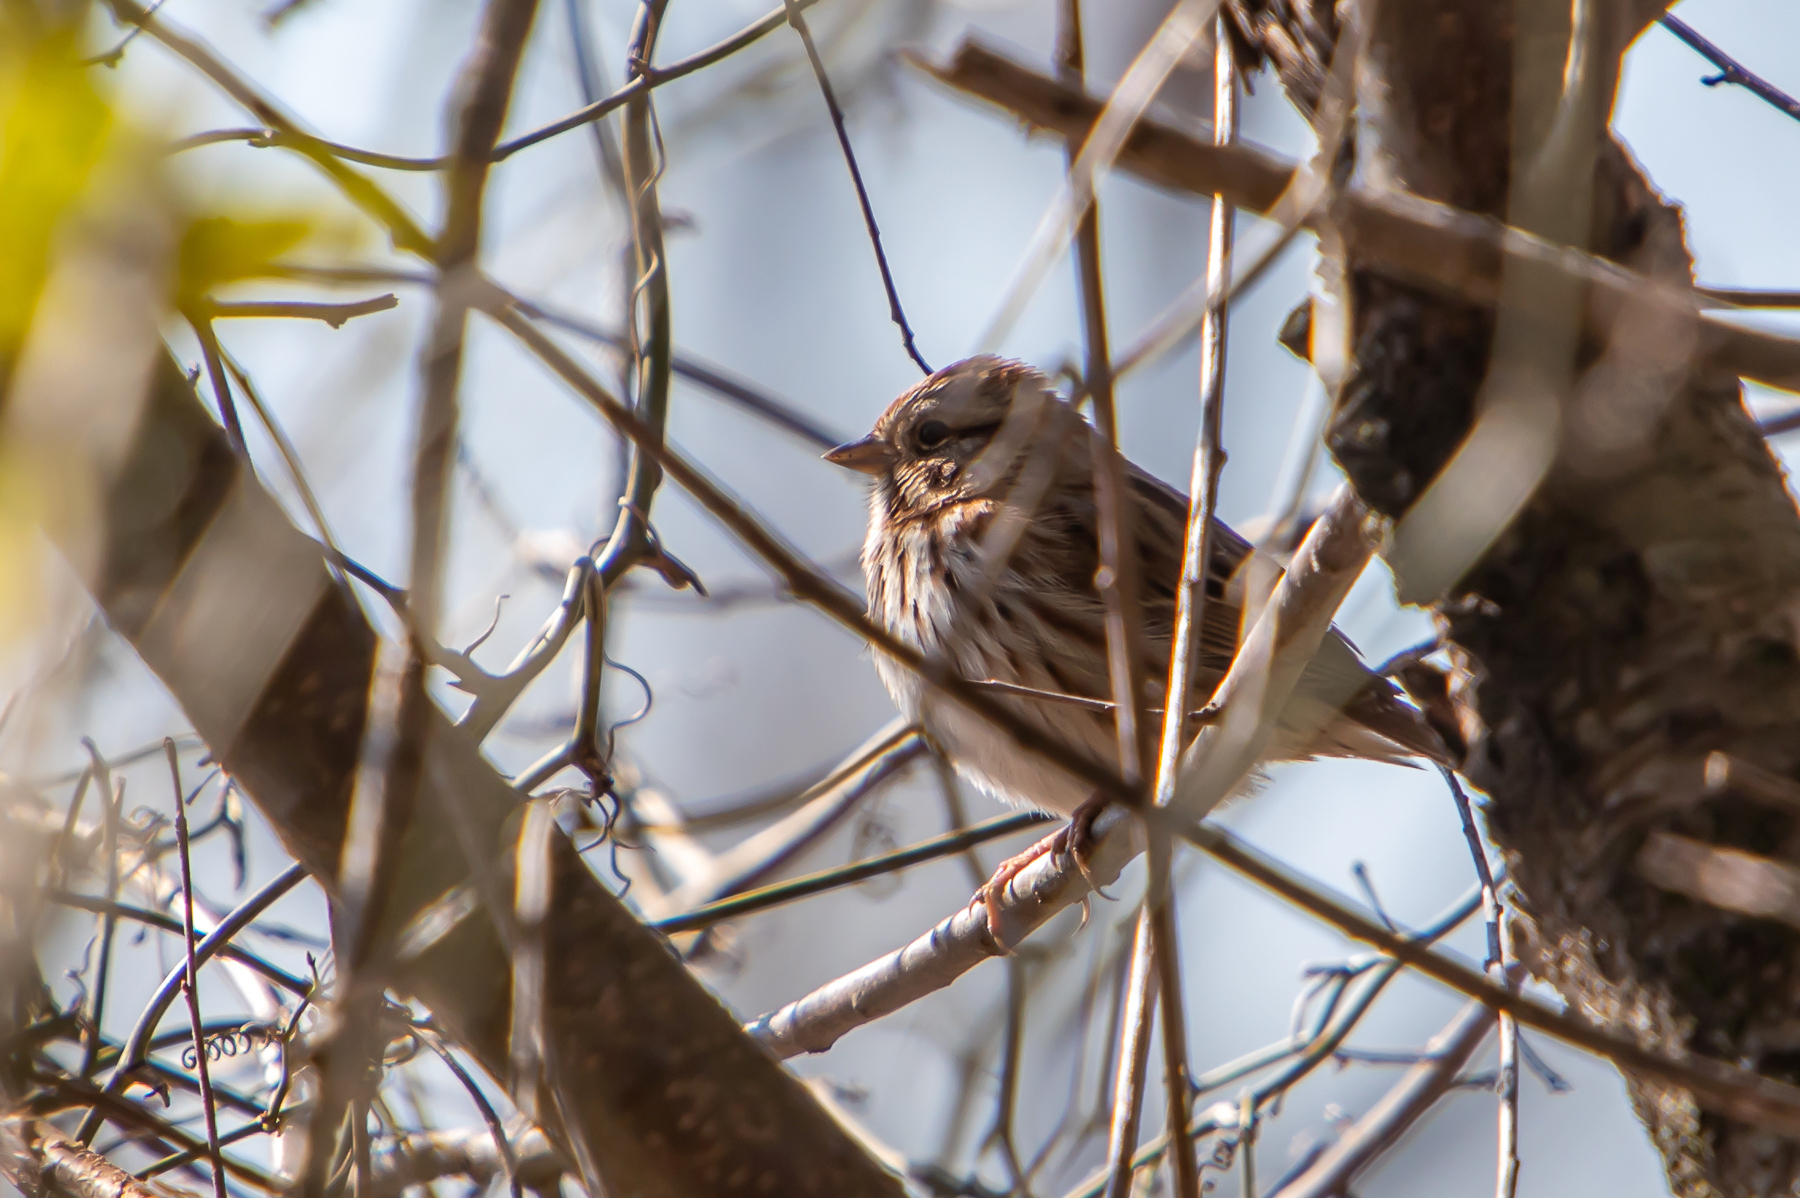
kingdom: Animalia
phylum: Chordata
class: Aves
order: Passeriformes
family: Passerellidae
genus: Melospiza
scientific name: Melospiza melodia
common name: Song sparrow
